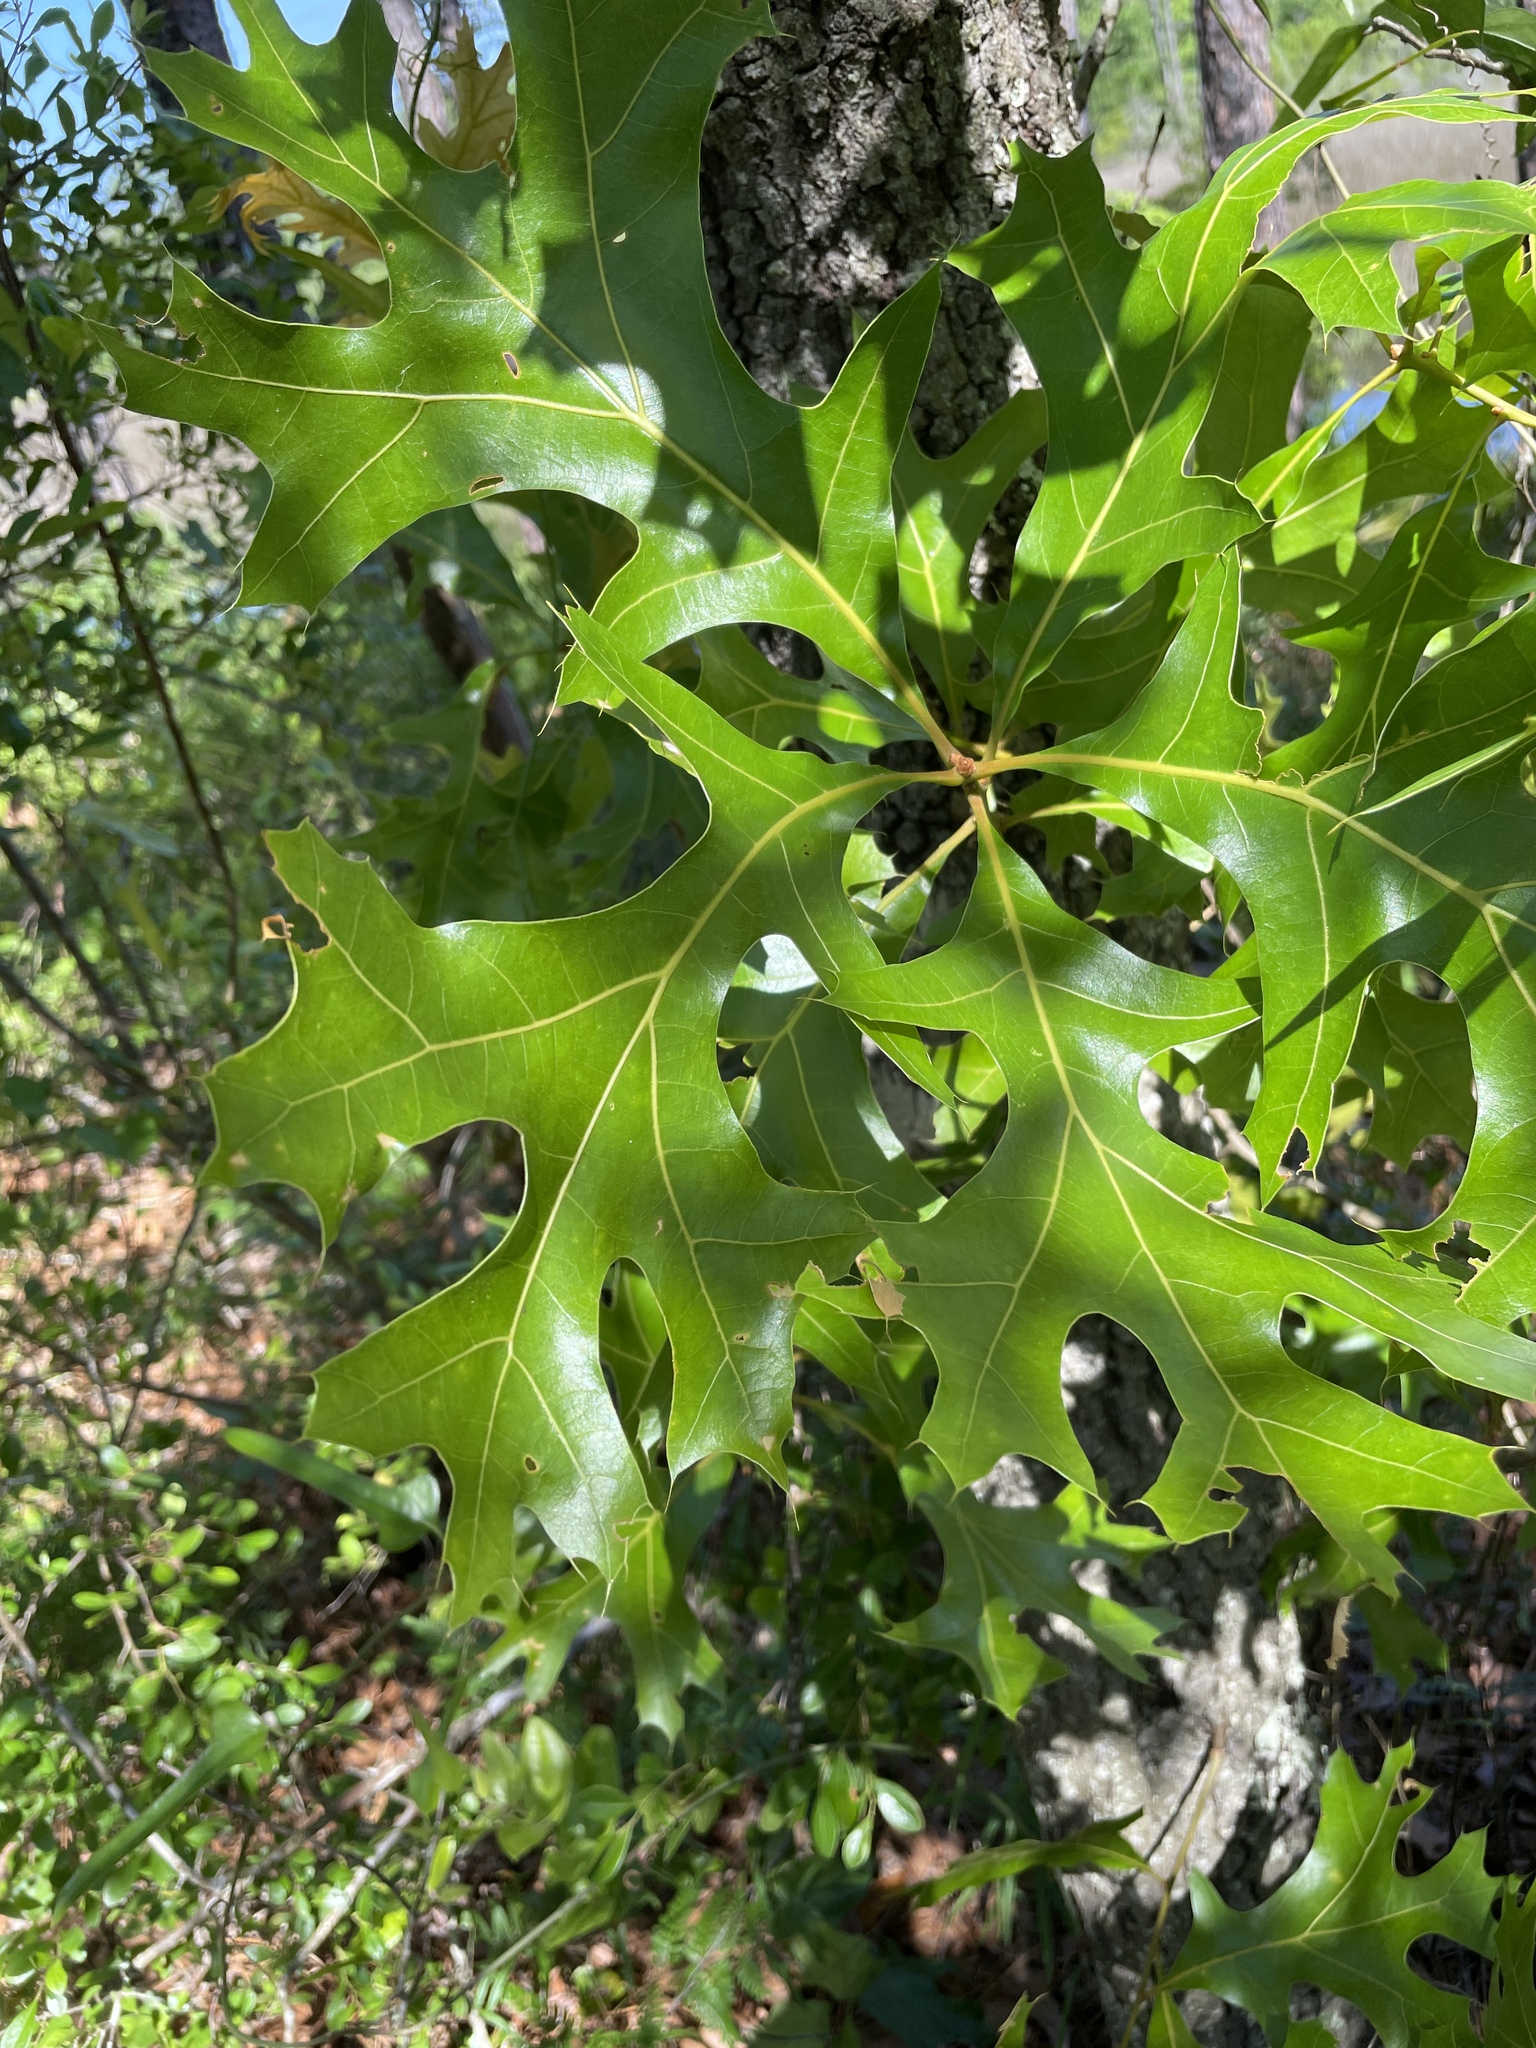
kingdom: Plantae
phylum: Tracheophyta
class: Magnoliopsida
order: Fagales
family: Fagaceae
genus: Quercus
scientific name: Quercus laevis
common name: Turkey oak
